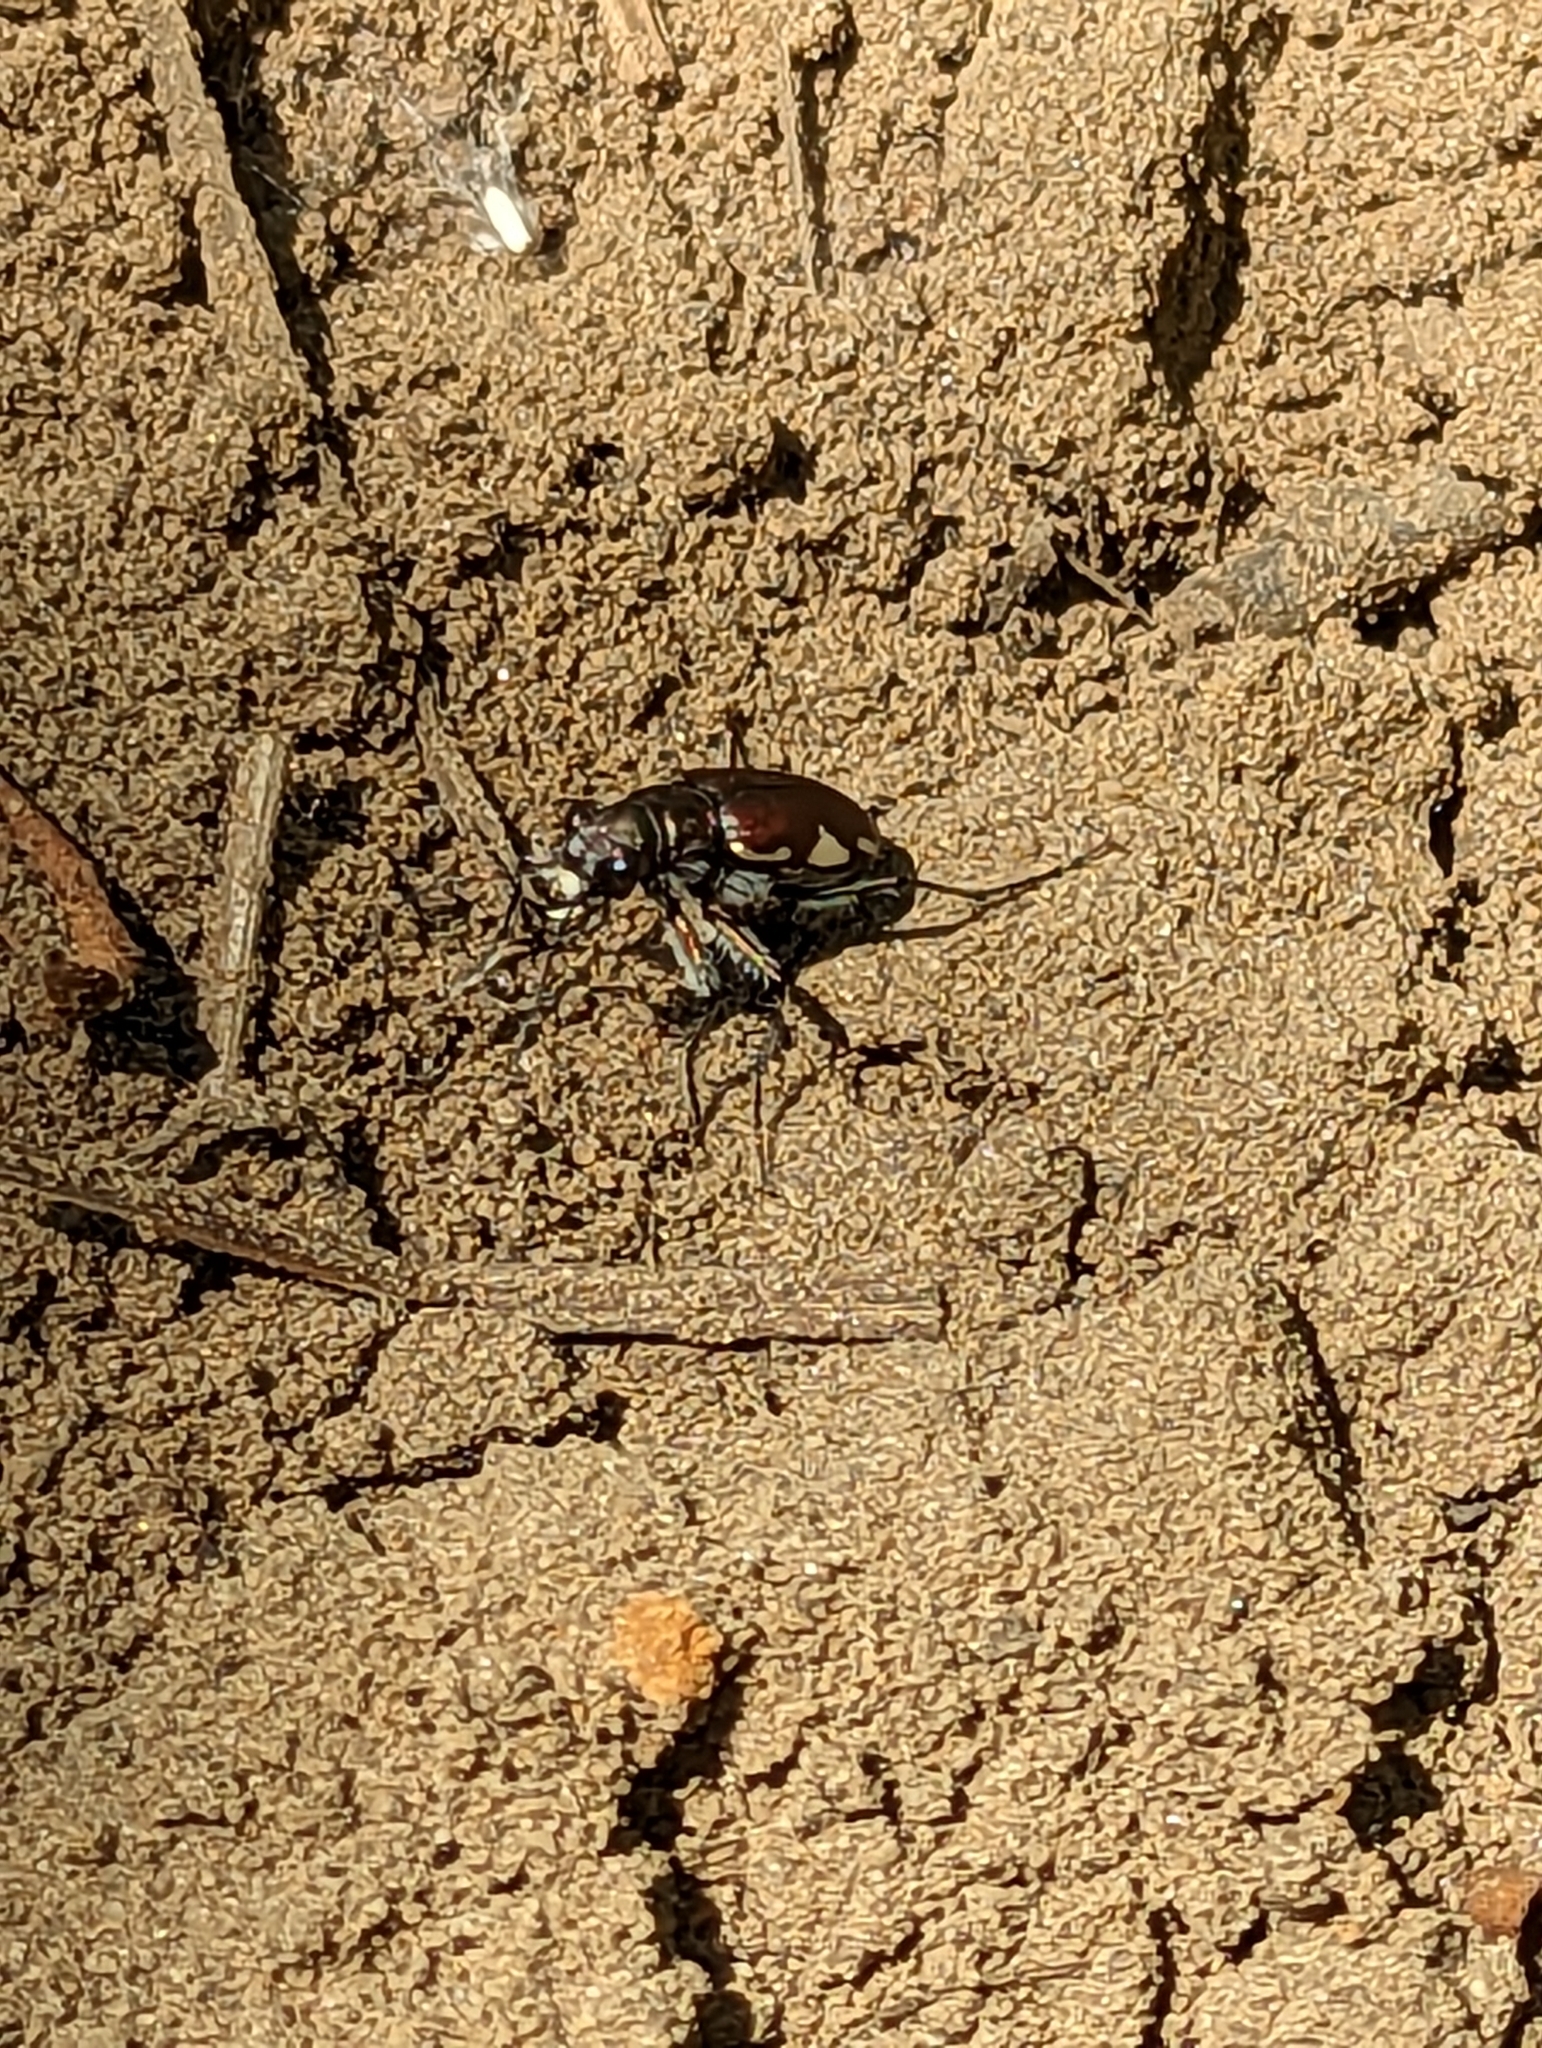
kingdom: Animalia
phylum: Arthropoda
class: Insecta
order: Coleoptera
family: Carabidae
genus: Cicindela
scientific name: Cicindela scutellaris
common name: Festive tiger beetle
